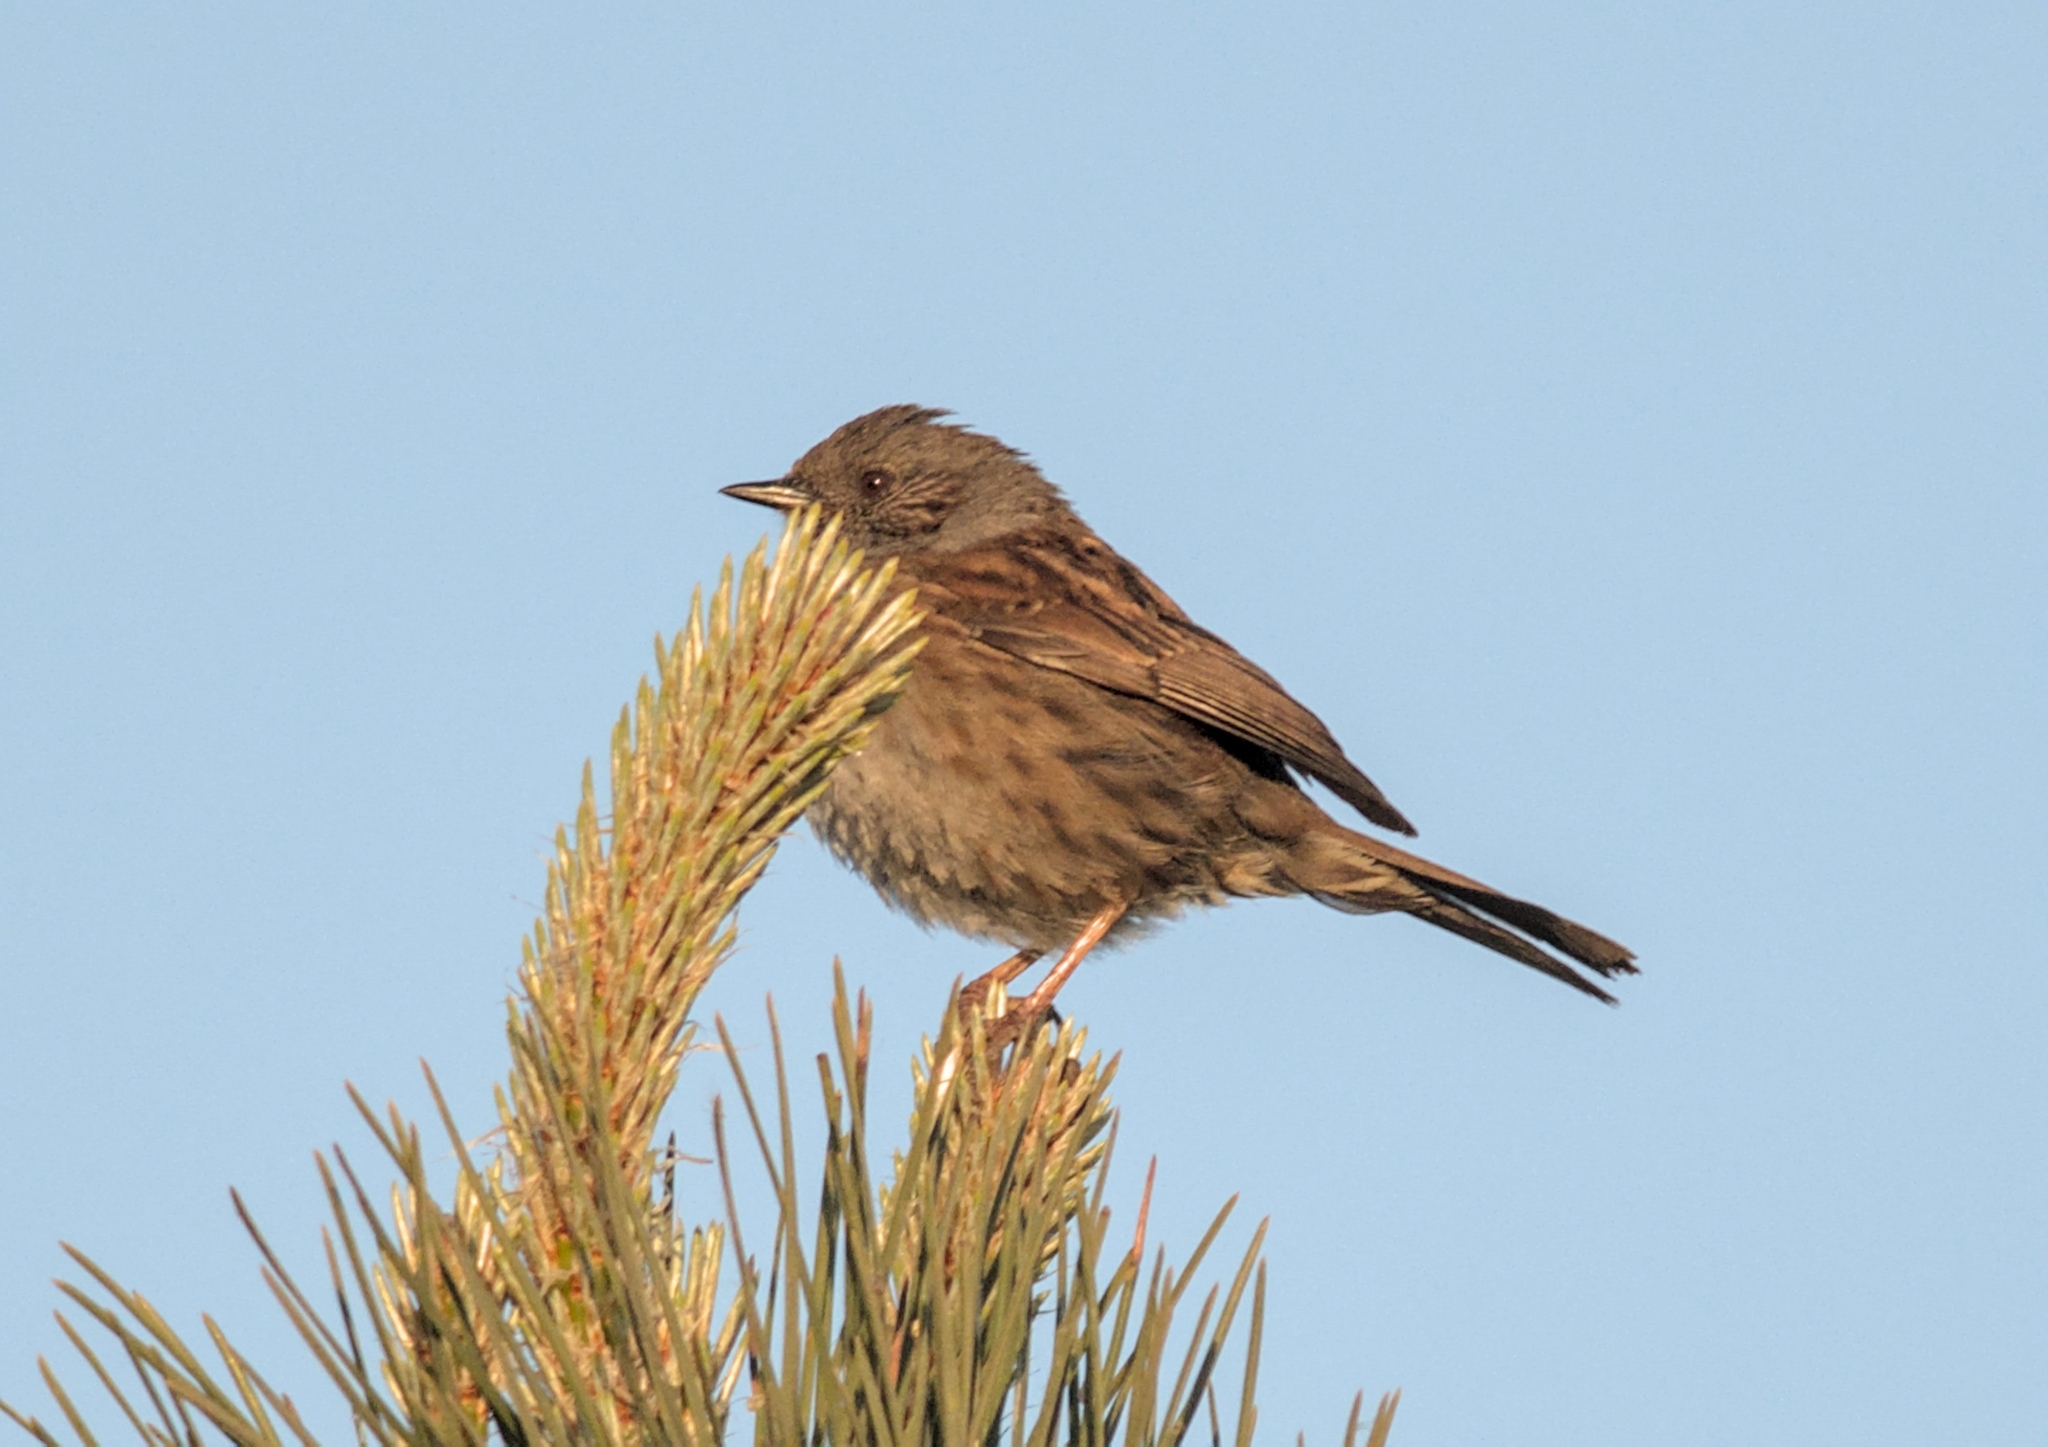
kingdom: Animalia
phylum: Chordata
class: Aves
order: Passeriformes
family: Prunellidae
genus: Prunella
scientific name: Prunella modularis
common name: Dunnock
